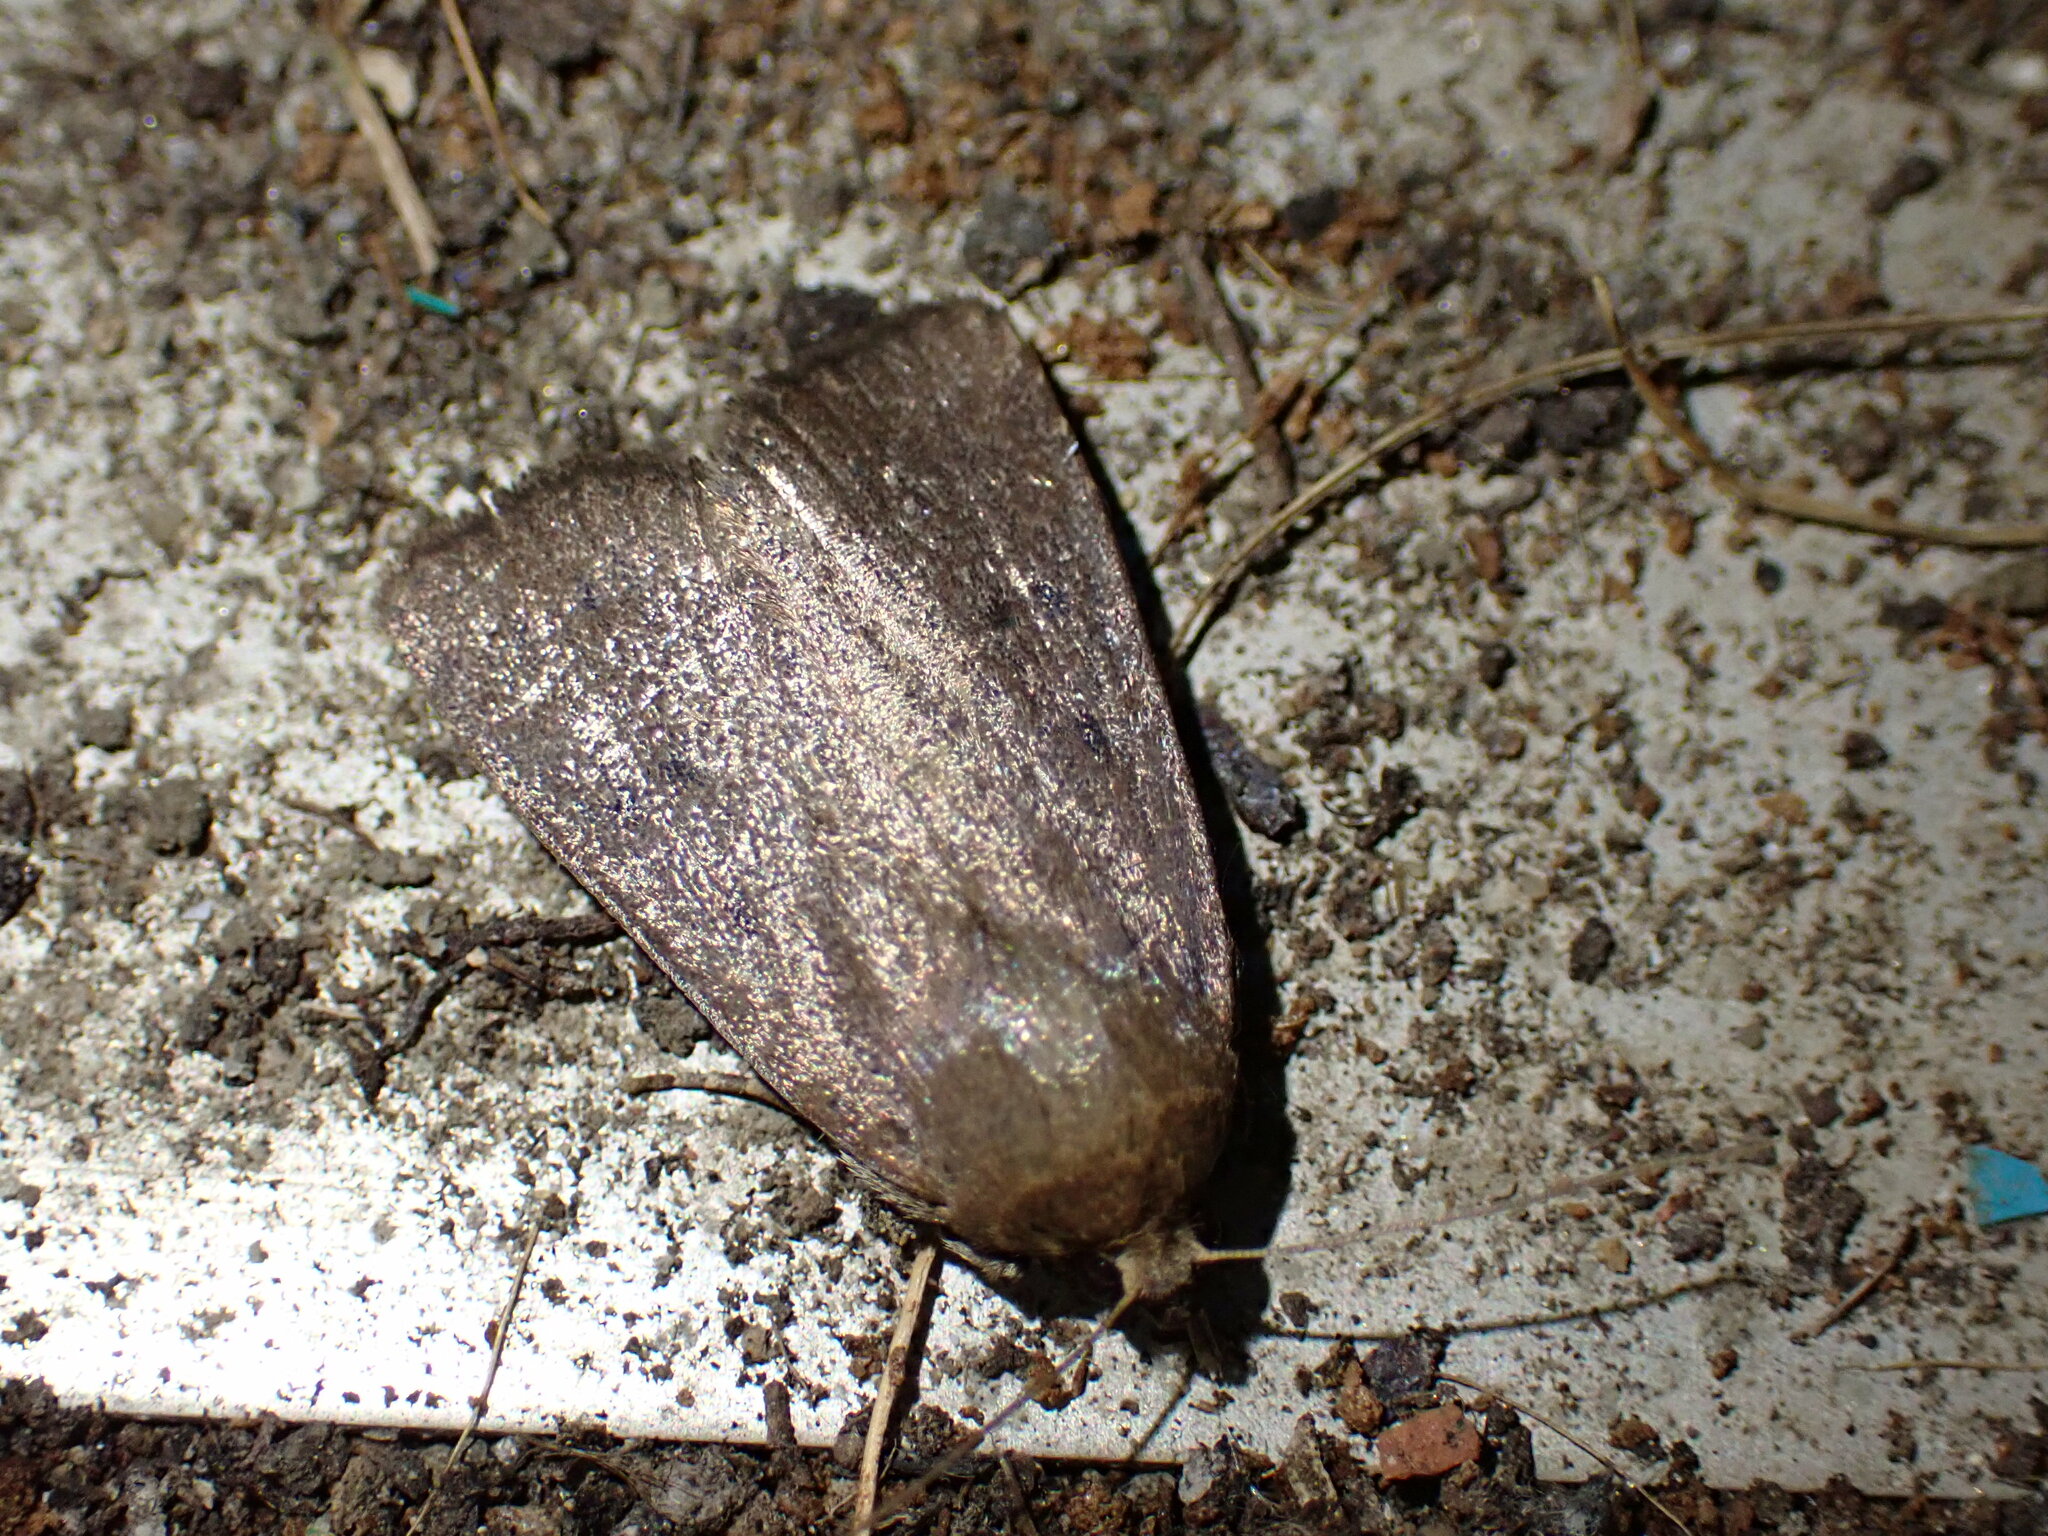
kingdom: Animalia
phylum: Arthropoda
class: Insecta
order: Lepidoptera
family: Noctuidae
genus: Amphipyra
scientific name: Amphipyra tragopoginis
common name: Mouse moth
